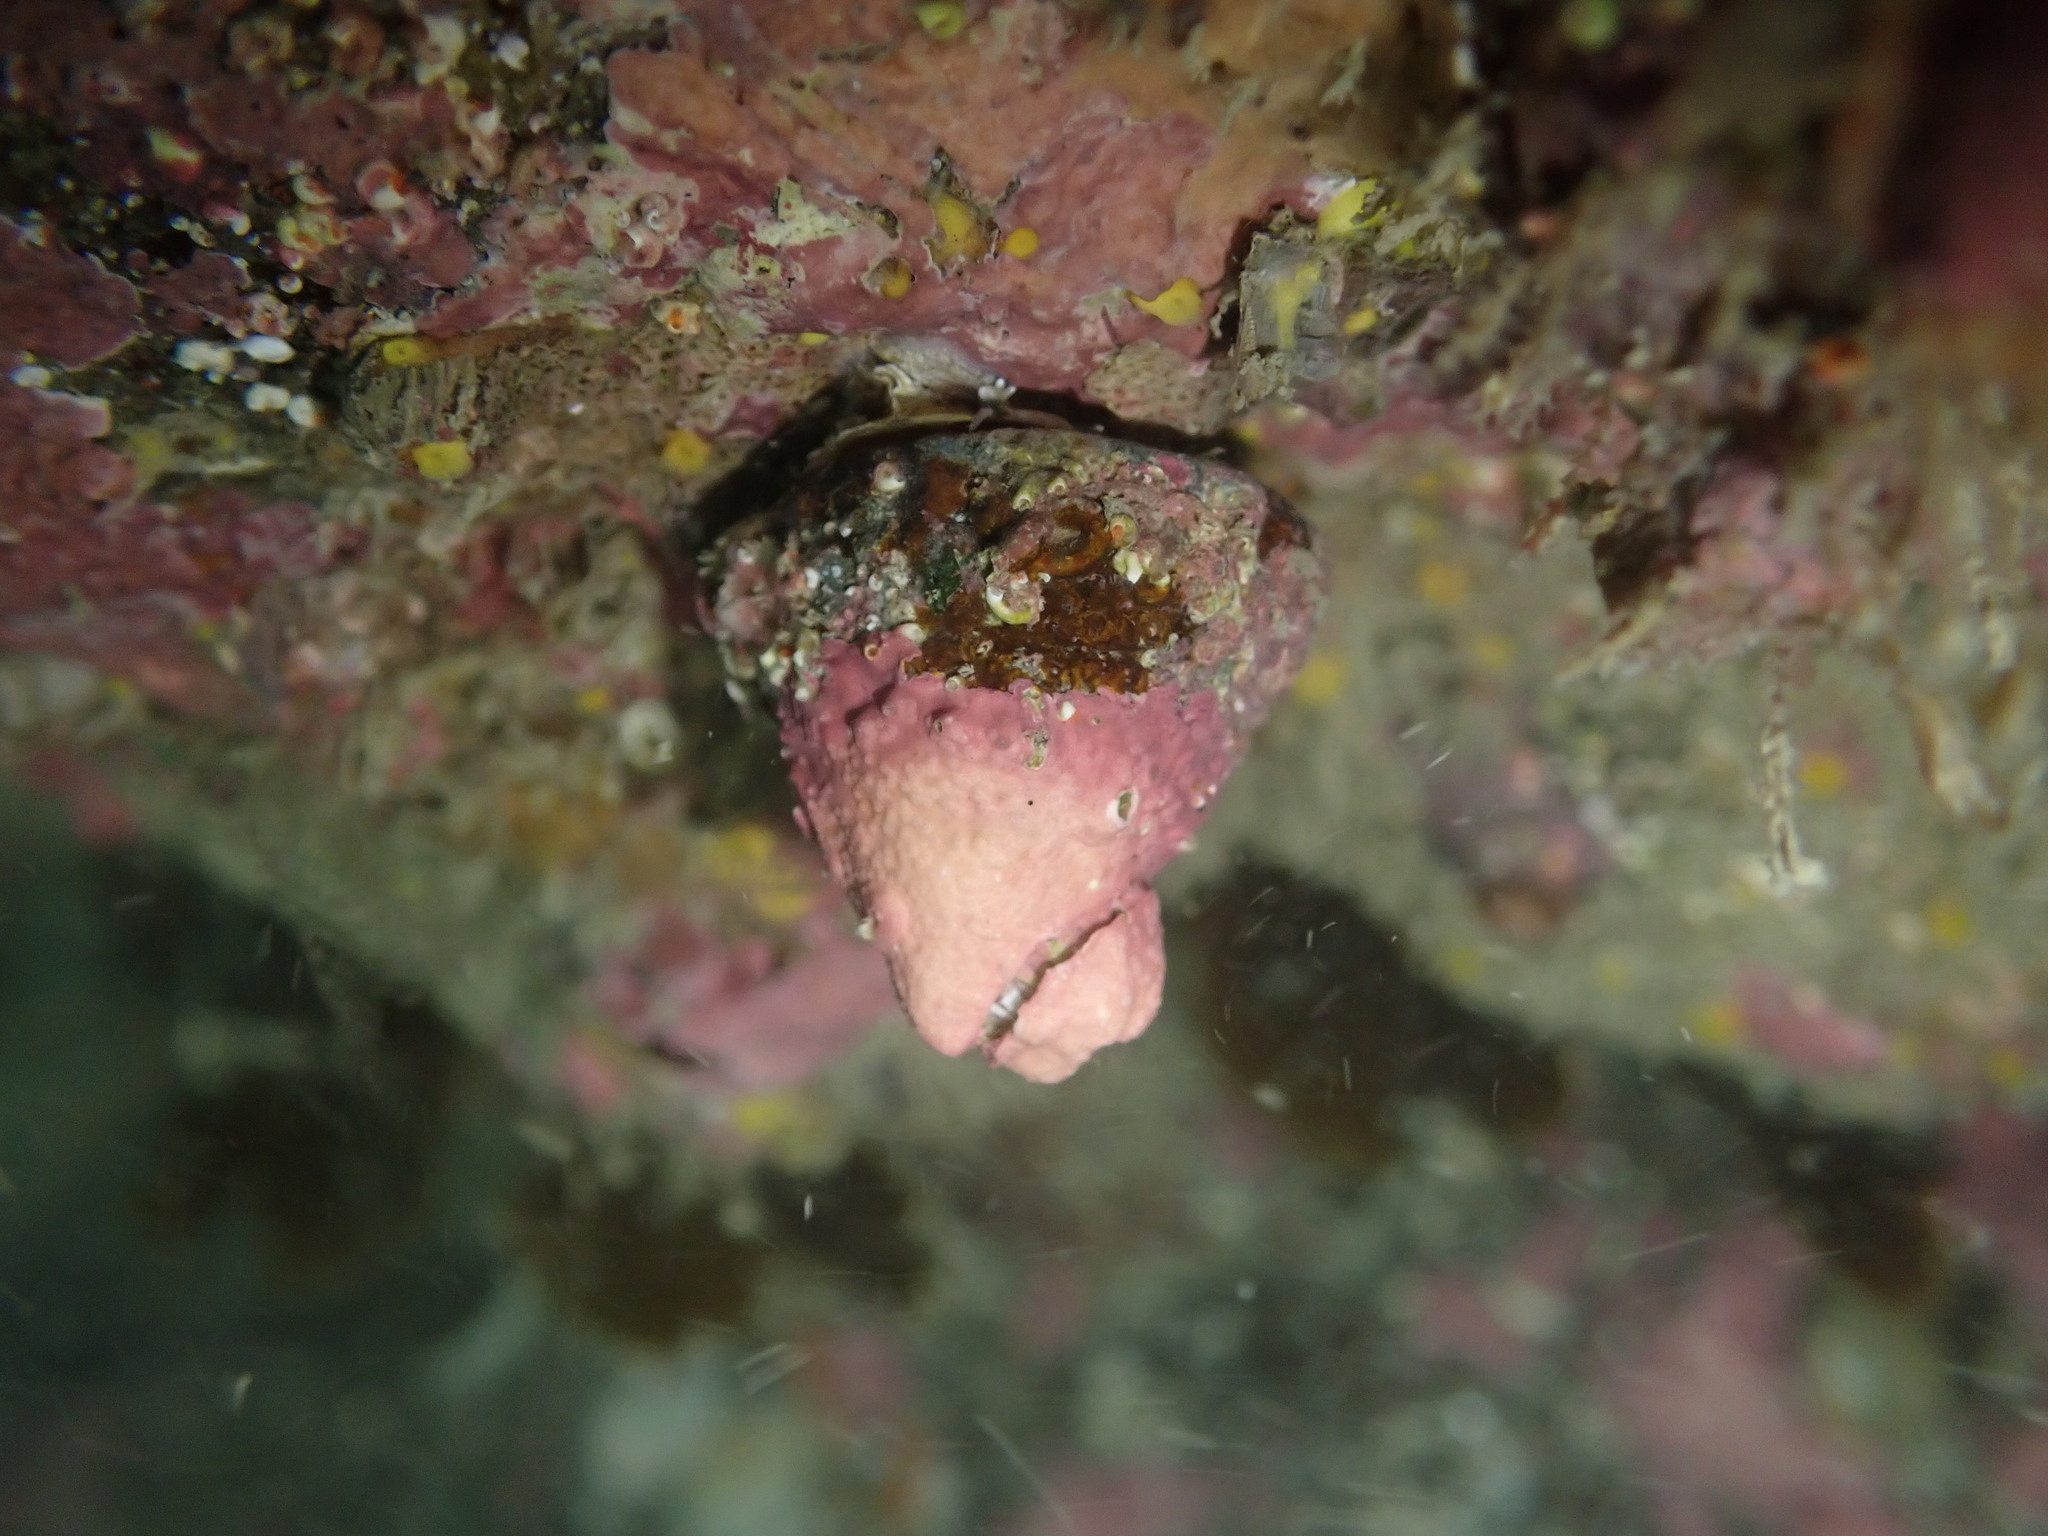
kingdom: Animalia
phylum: Mollusca
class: Gastropoda
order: Trochida
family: Trochidae
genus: Coelotrochus
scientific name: Coelotrochus viridis
